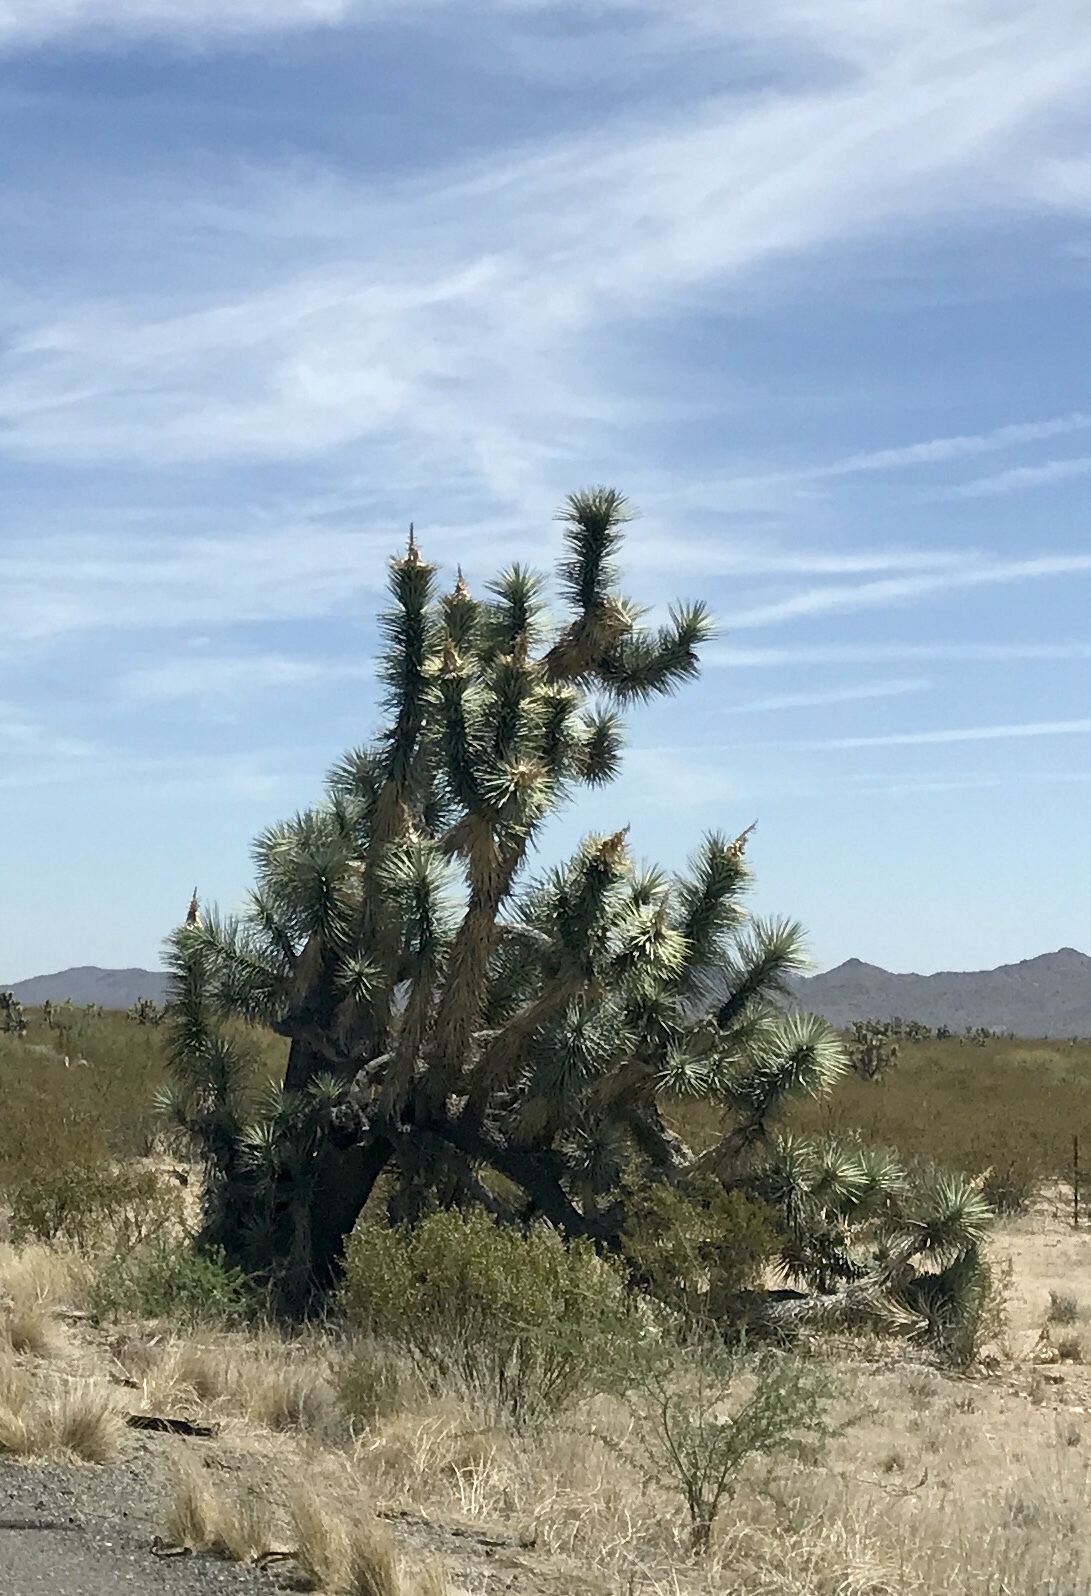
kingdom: Plantae
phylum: Tracheophyta
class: Liliopsida
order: Asparagales
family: Asparagaceae
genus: Yucca
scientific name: Yucca brevifolia
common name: Joshua tree
